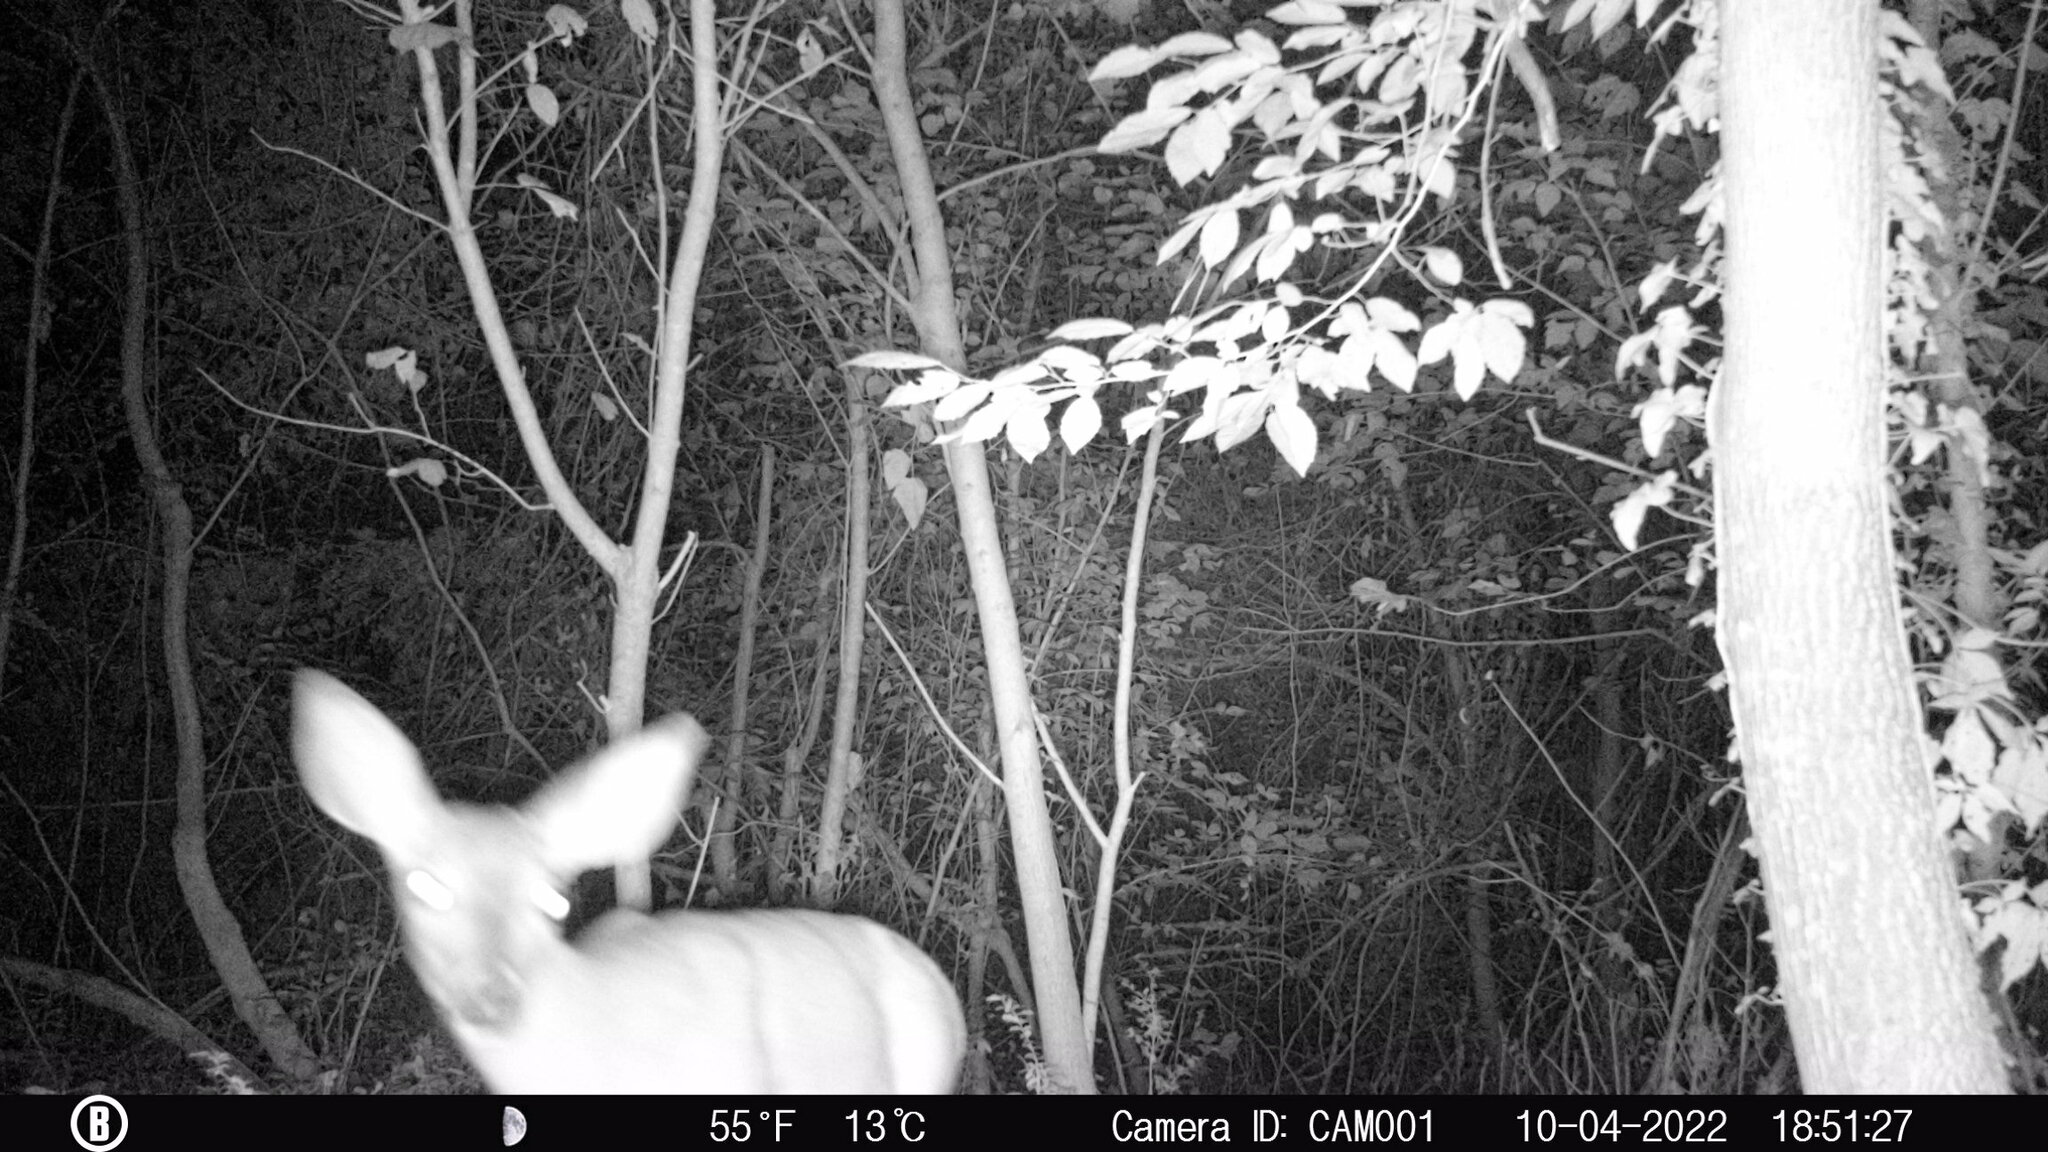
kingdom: Animalia
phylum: Chordata
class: Mammalia
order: Artiodactyla
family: Cervidae
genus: Odocoileus
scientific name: Odocoileus virginianus
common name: White-tailed deer
